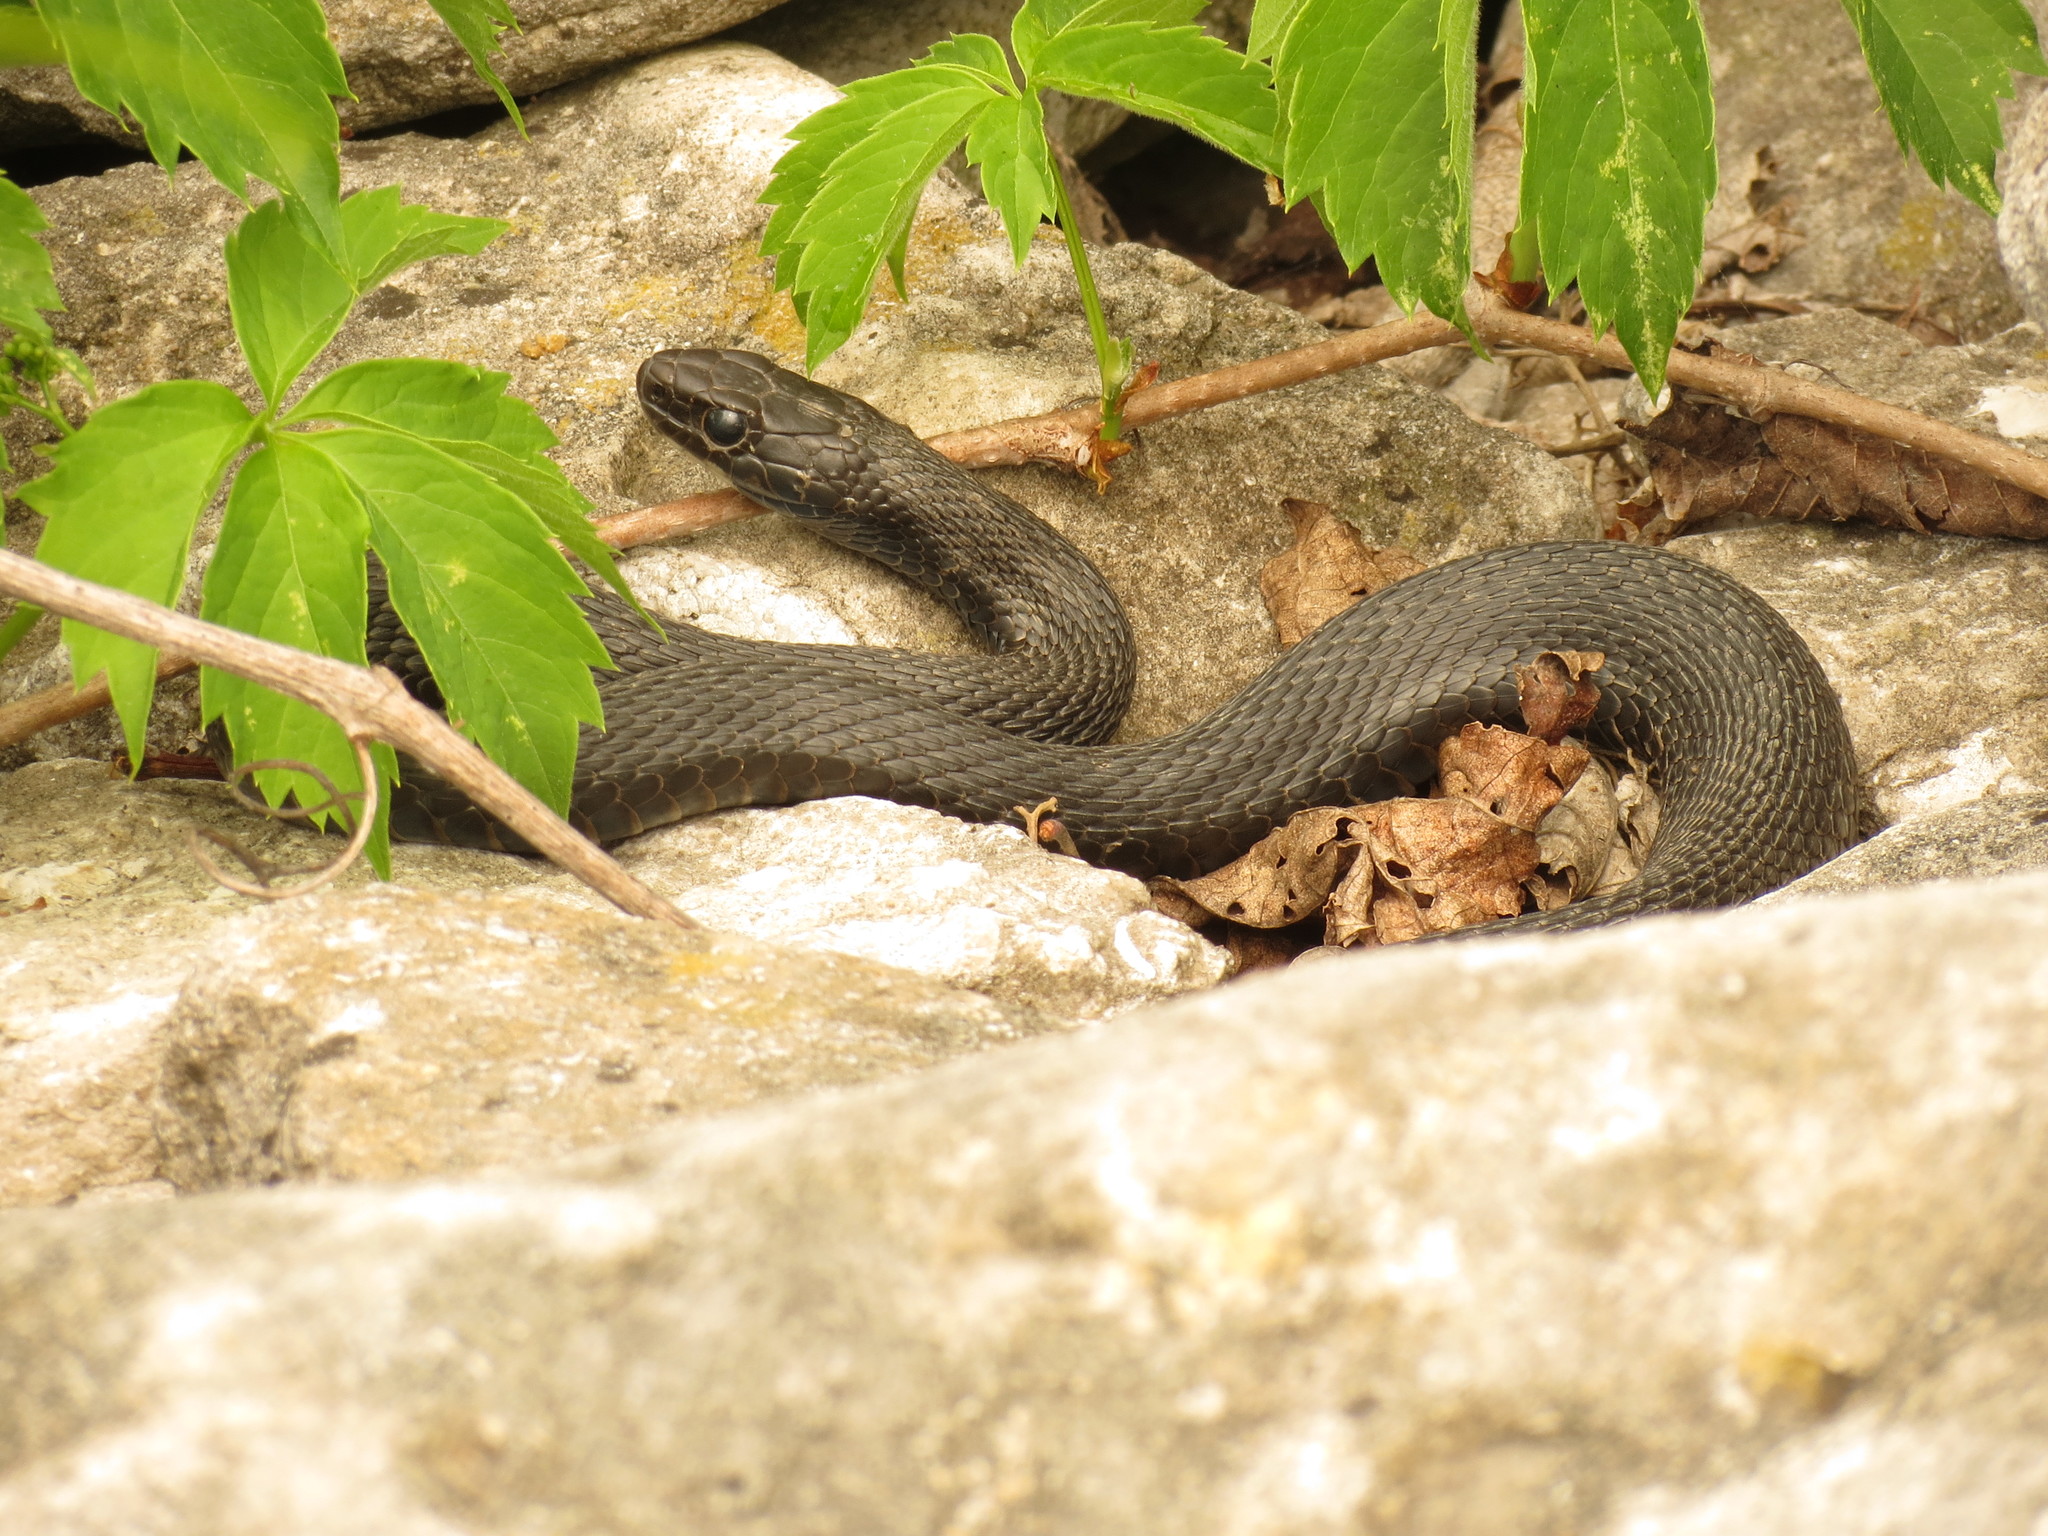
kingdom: Animalia
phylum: Chordata
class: Squamata
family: Colubridae
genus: Thamnophis
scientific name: Thamnophis sirtalis
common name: Common garter snake
